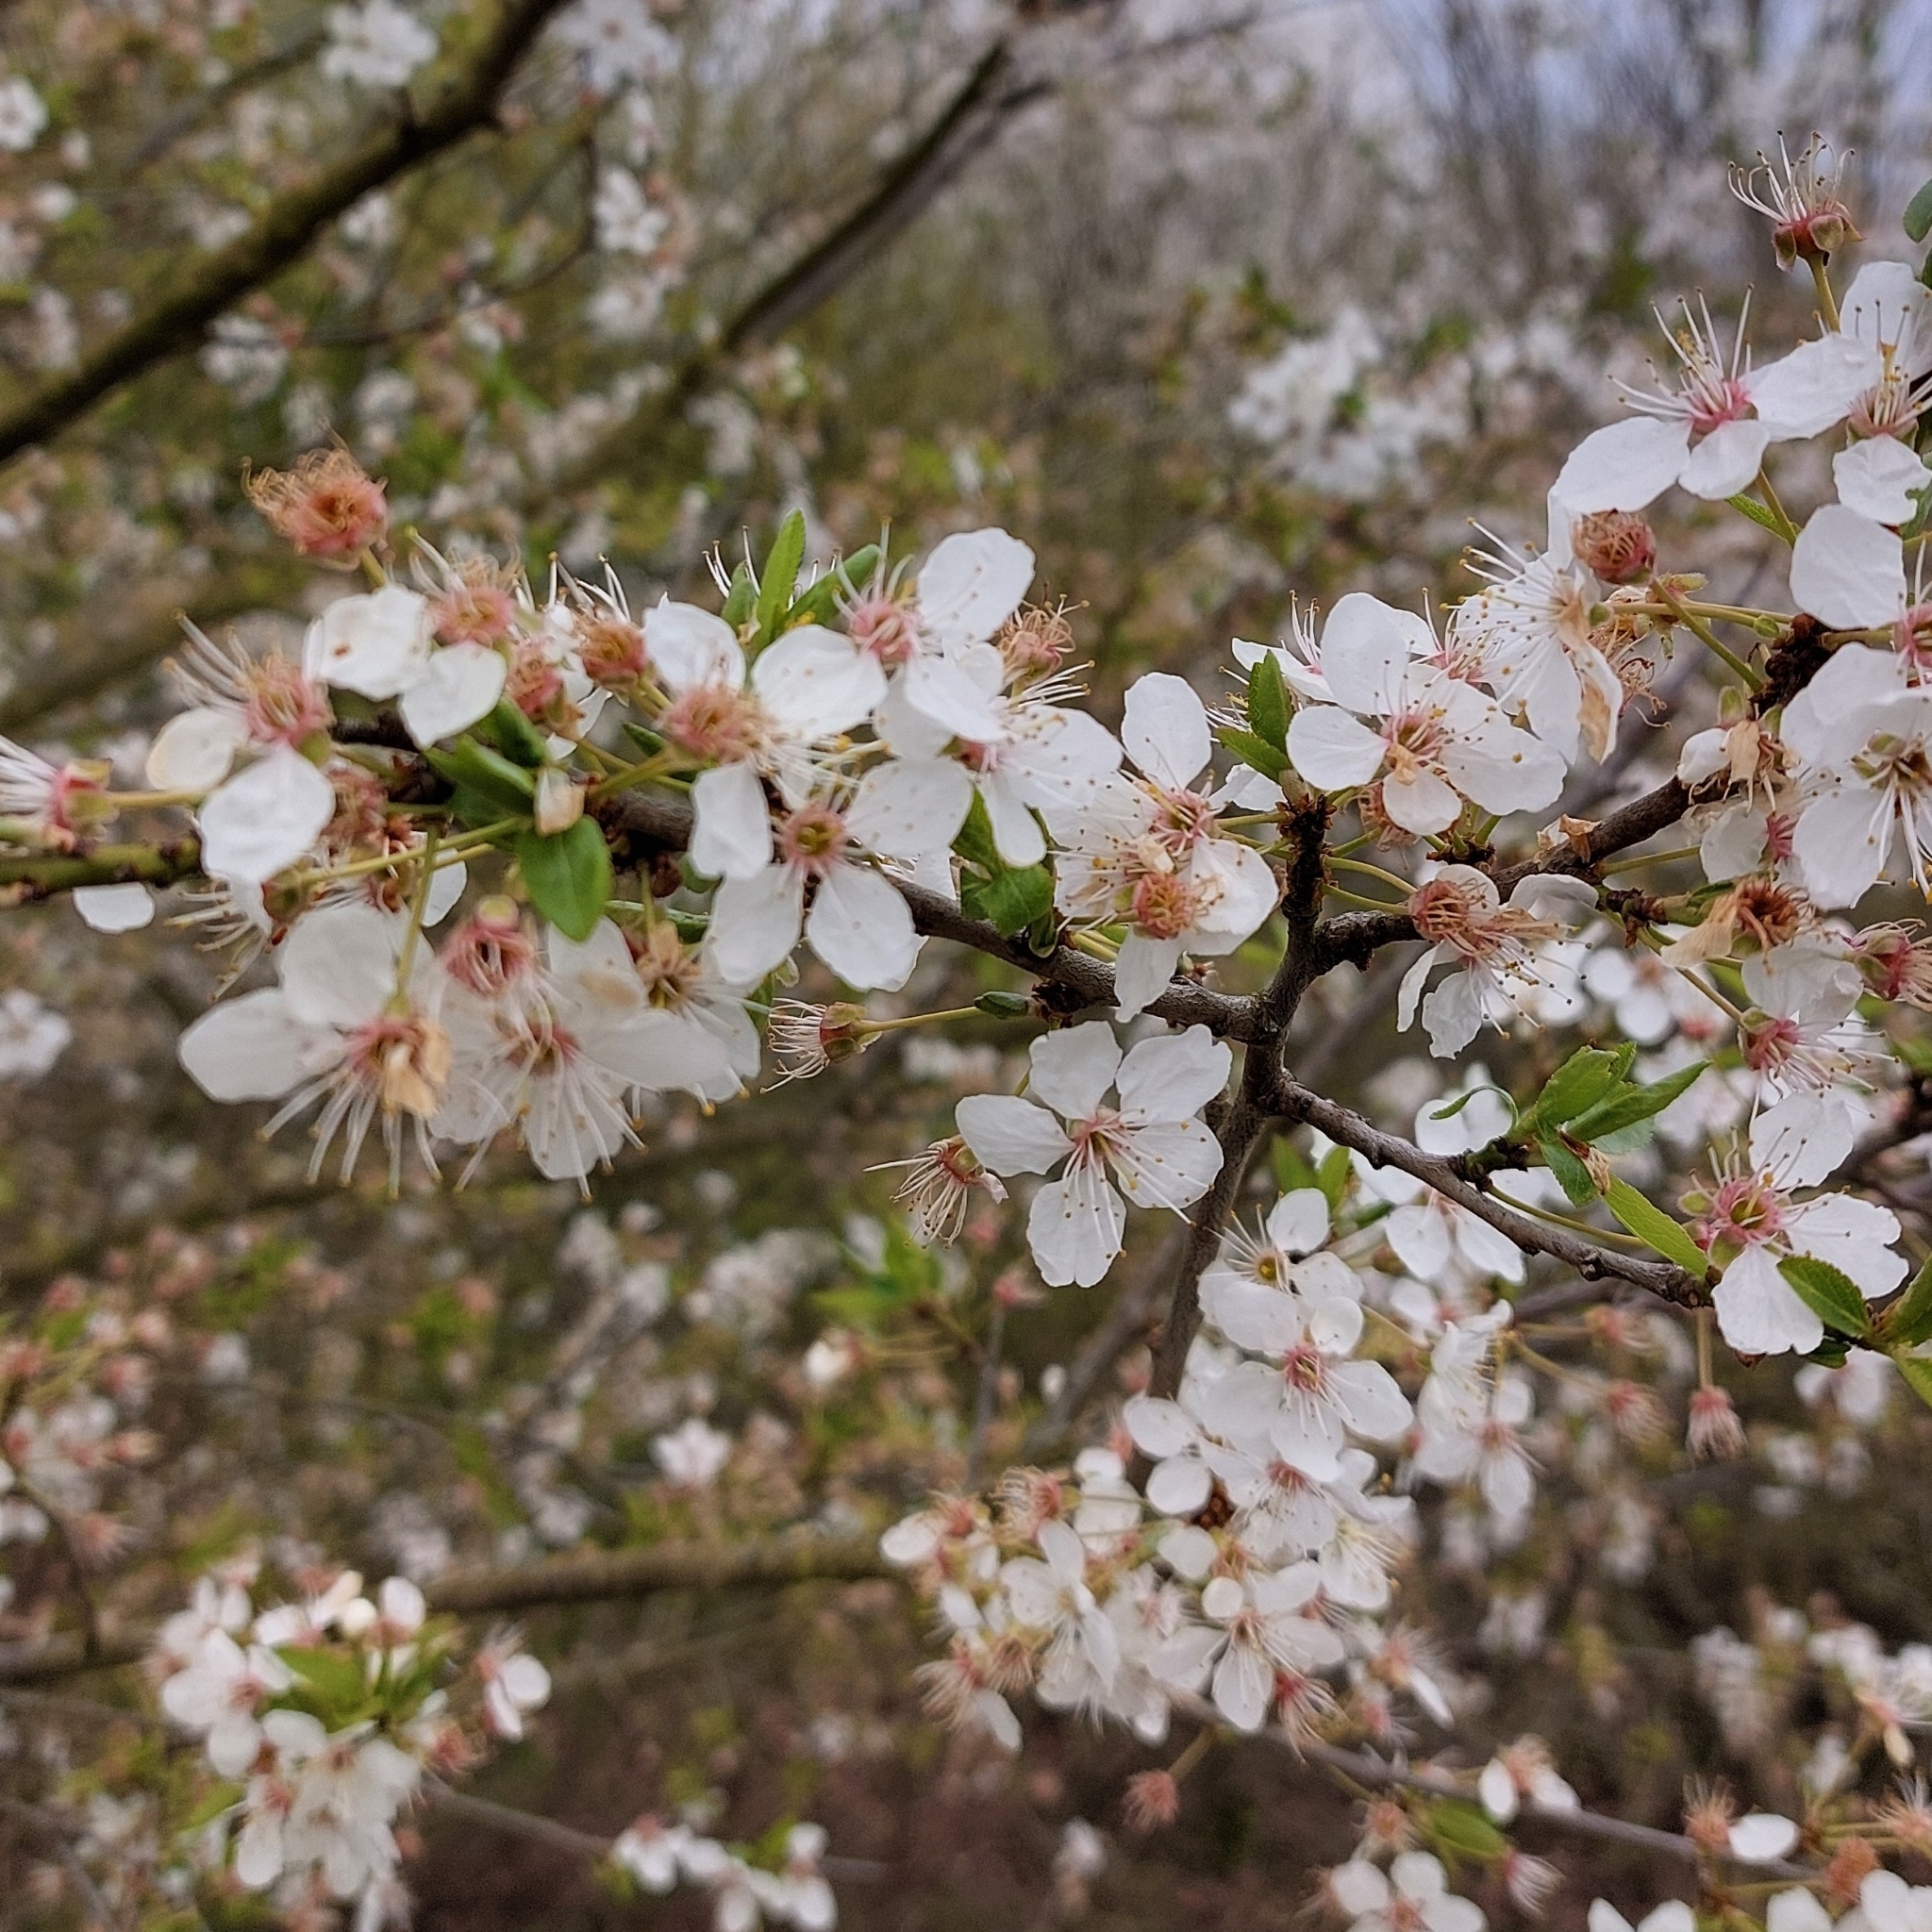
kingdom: Plantae
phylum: Tracheophyta
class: Magnoliopsida
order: Rosales
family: Rosaceae
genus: Prunus
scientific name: Prunus cerasifera
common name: Cherry plum
